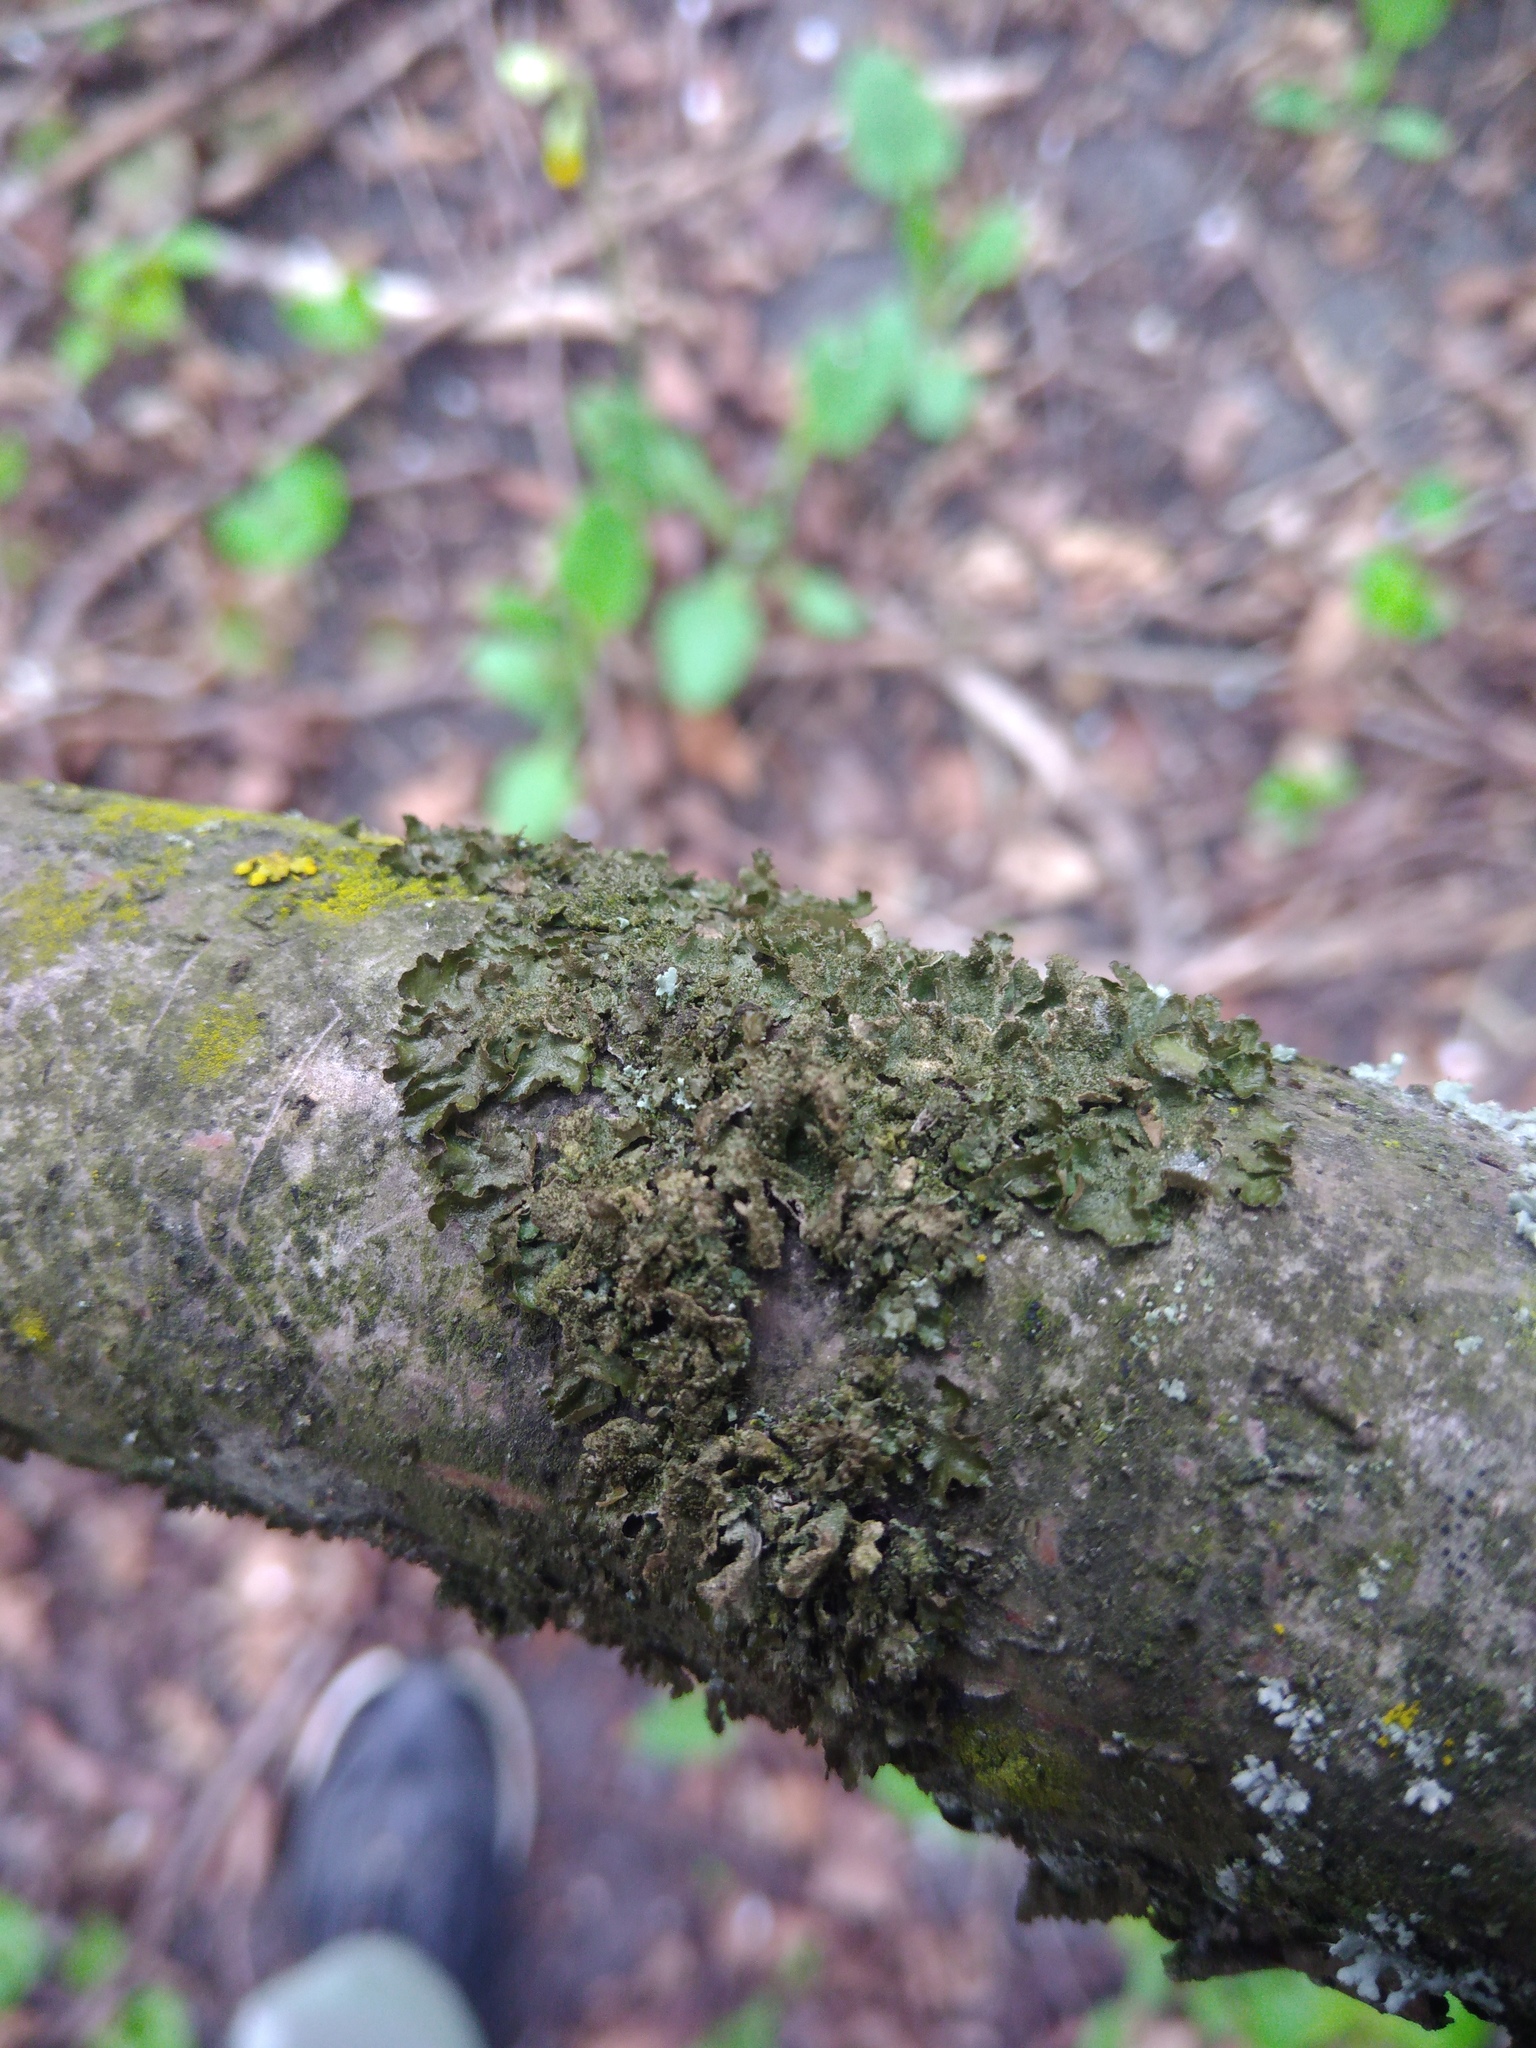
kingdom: Fungi
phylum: Ascomycota
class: Lecanoromycetes
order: Lecanorales
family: Parmeliaceae
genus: Melanohalea
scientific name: Melanohalea exasperatula
